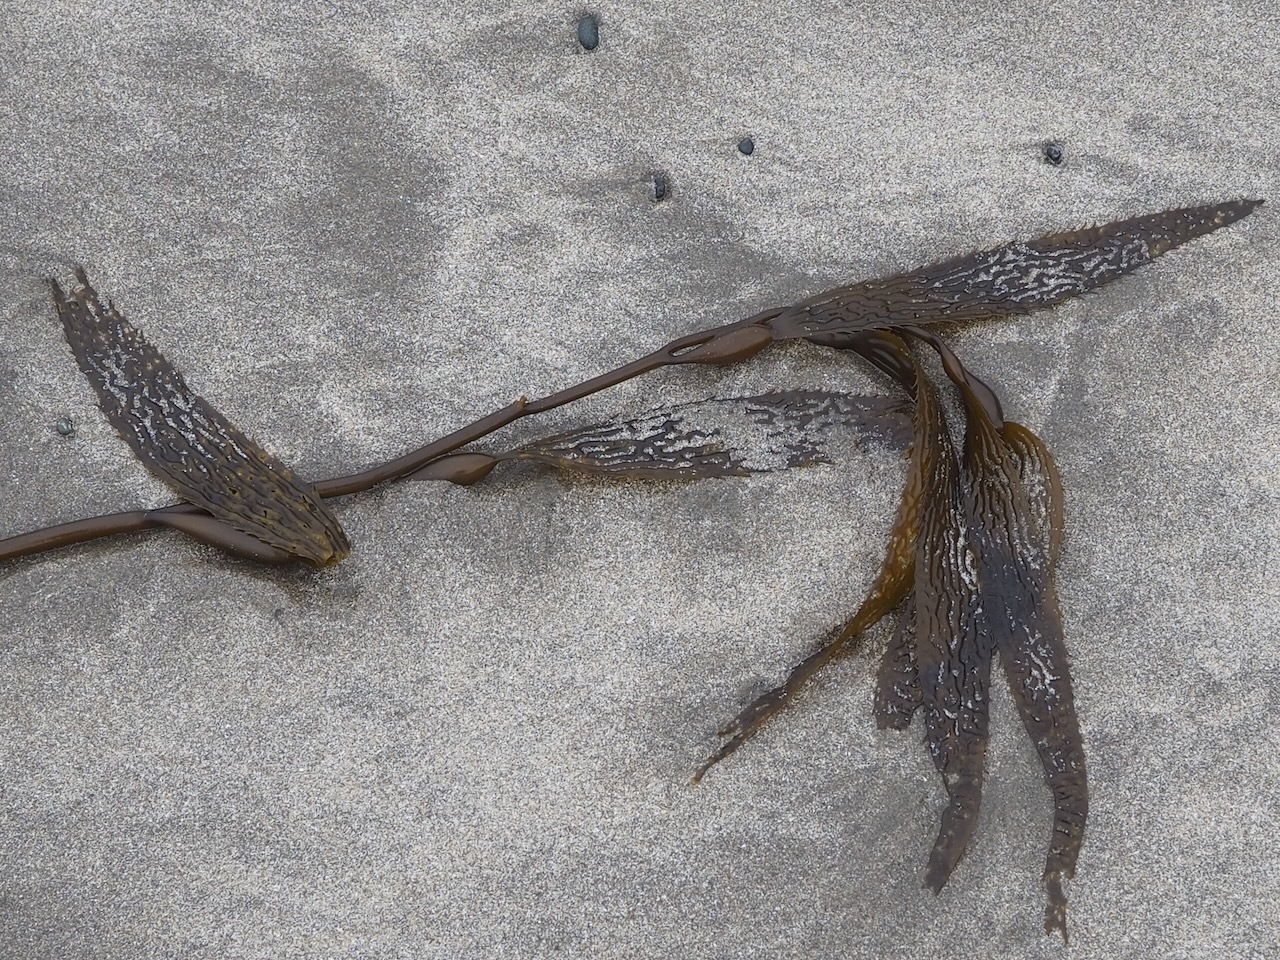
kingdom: Chromista
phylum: Ochrophyta
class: Phaeophyceae
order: Laminariales
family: Laminariaceae
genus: Macrocystis
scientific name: Macrocystis pyrifera
